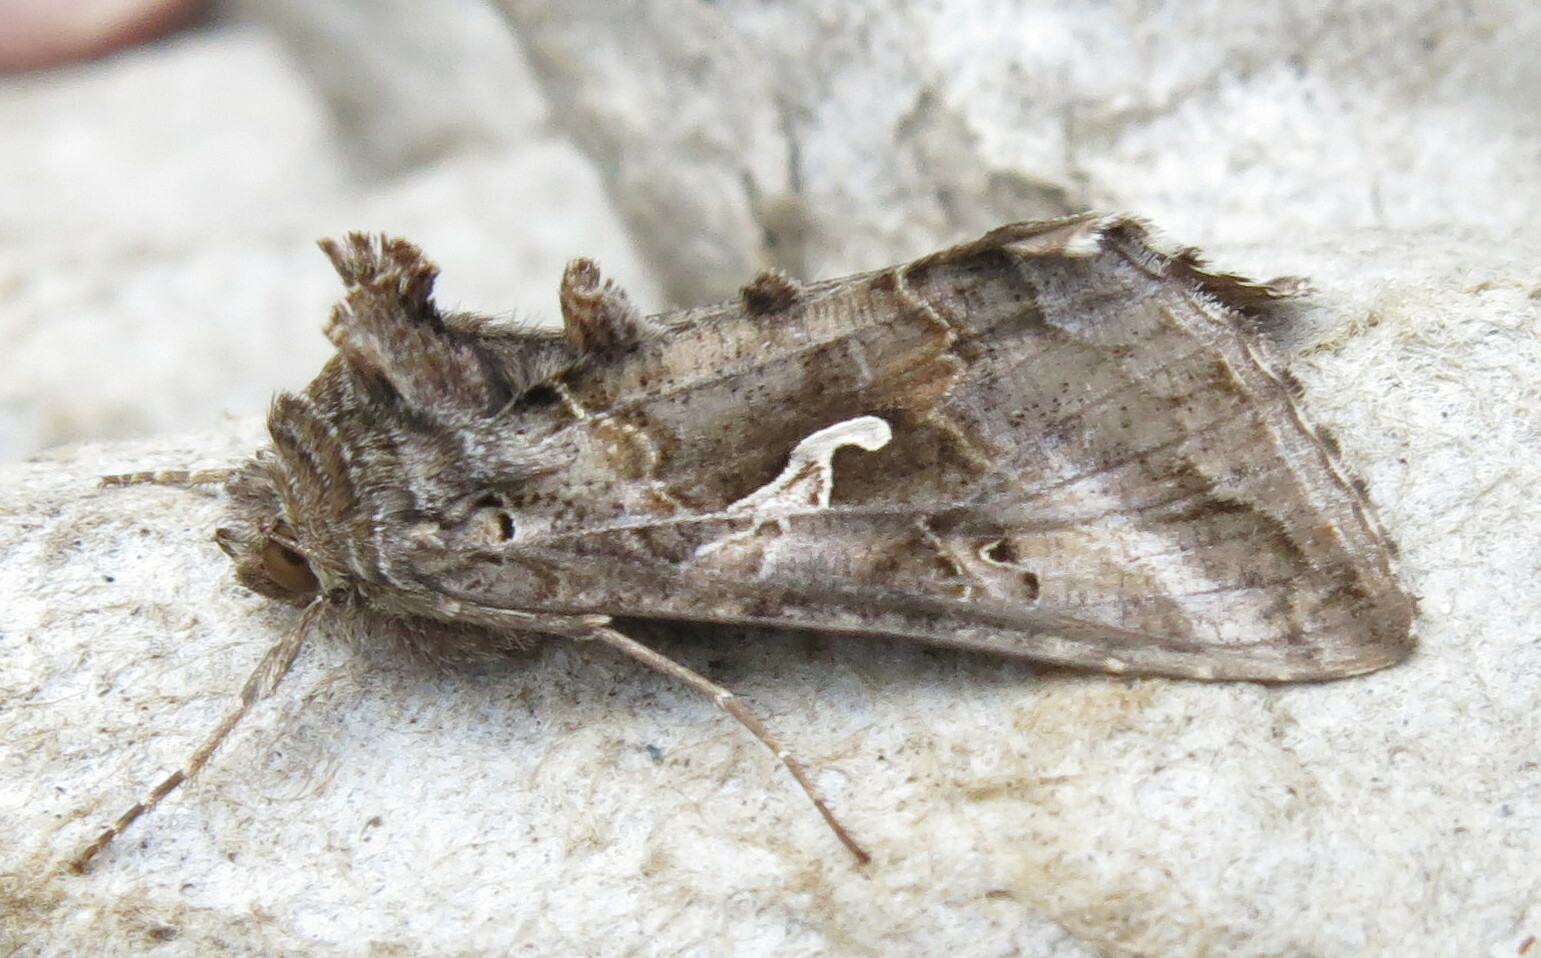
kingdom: Animalia
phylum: Arthropoda
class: Insecta
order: Lepidoptera
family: Noctuidae
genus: Autographa
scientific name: Autographa gamma
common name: Silver y
